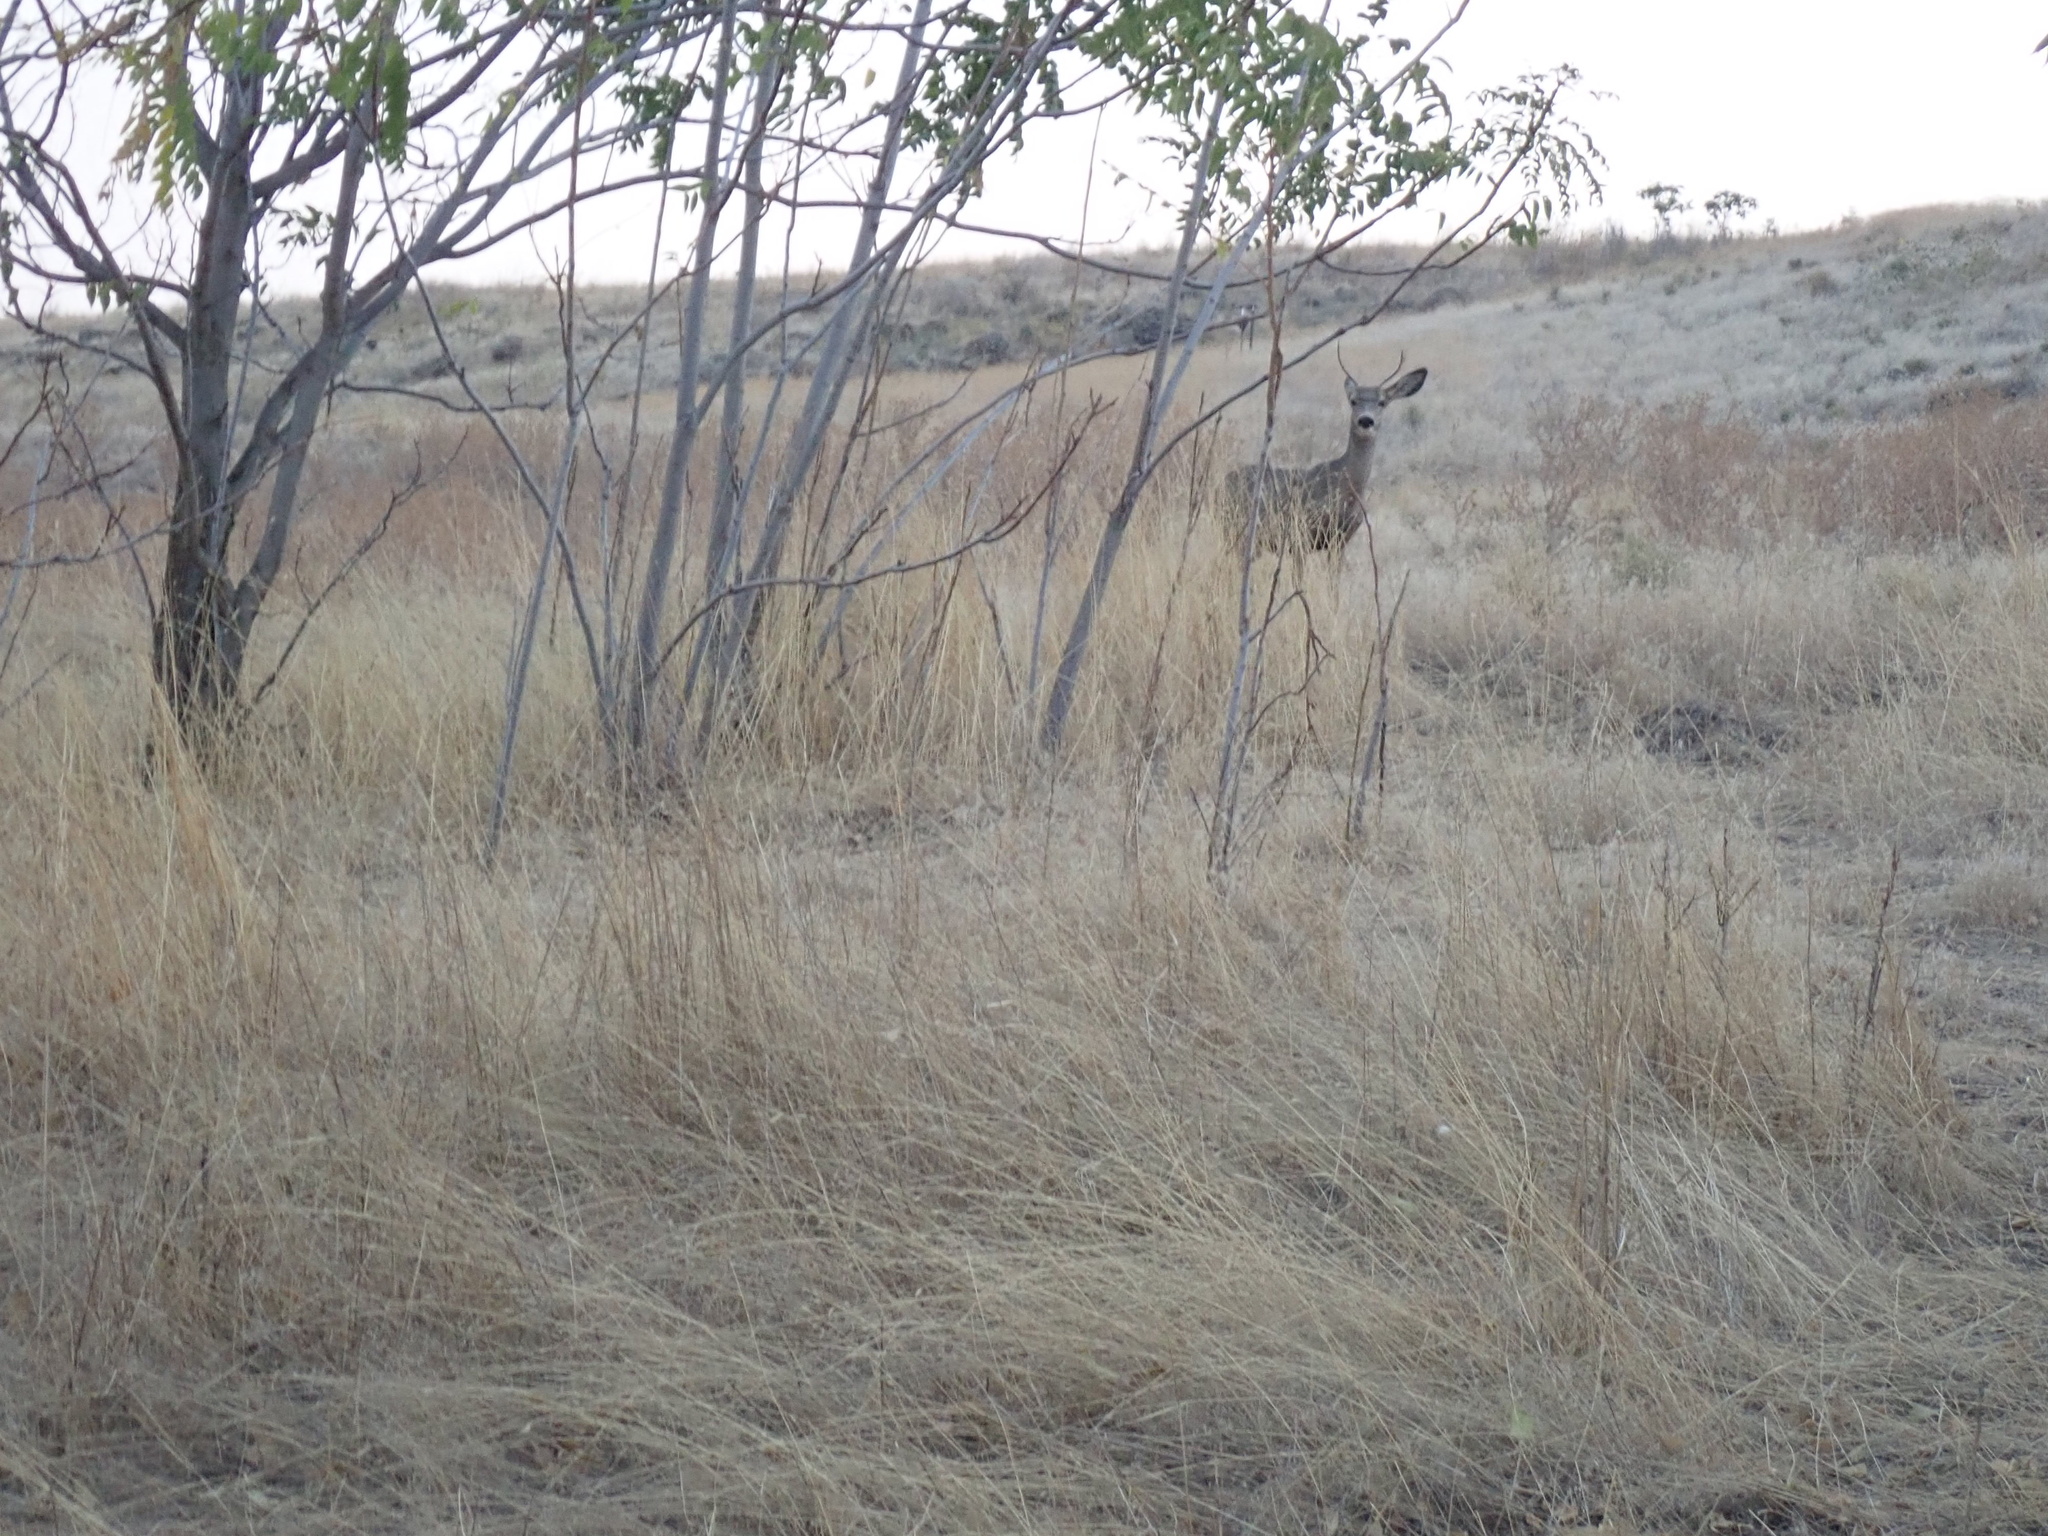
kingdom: Animalia
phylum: Chordata
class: Mammalia
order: Artiodactyla
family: Cervidae
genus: Odocoileus
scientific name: Odocoileus hemionus
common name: Mule deer
